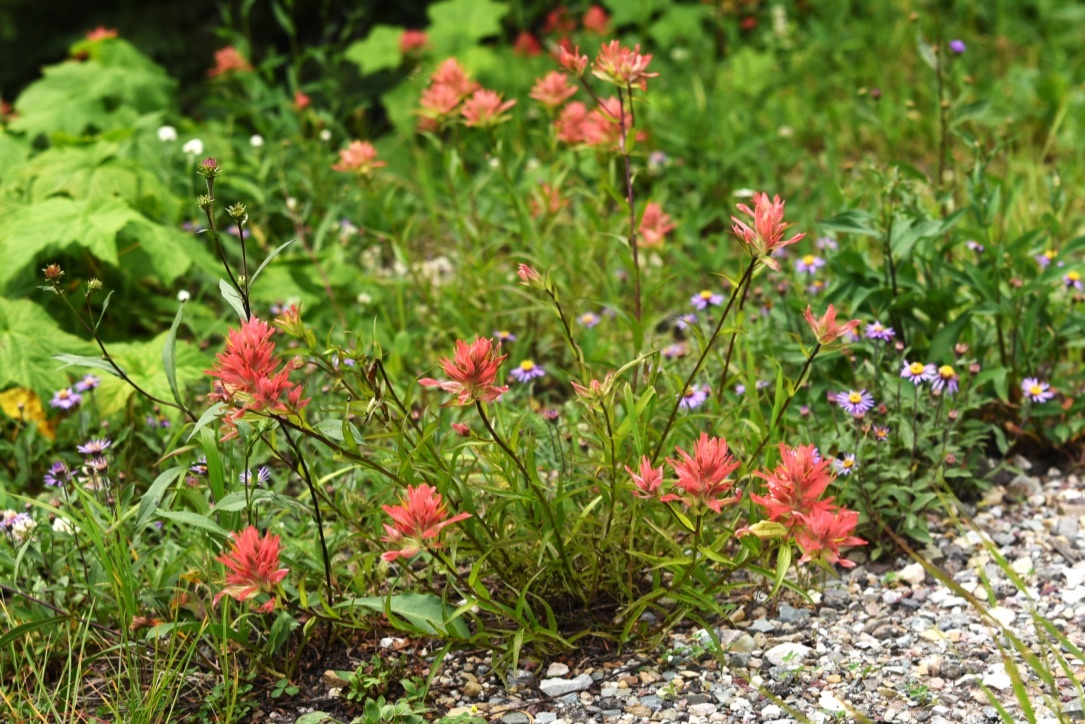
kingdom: Plantae
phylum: Tracheophyta
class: Magnoliopsida
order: Lamiales
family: Orobanchaceae
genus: Castilleja
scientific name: Castilleja miniata
